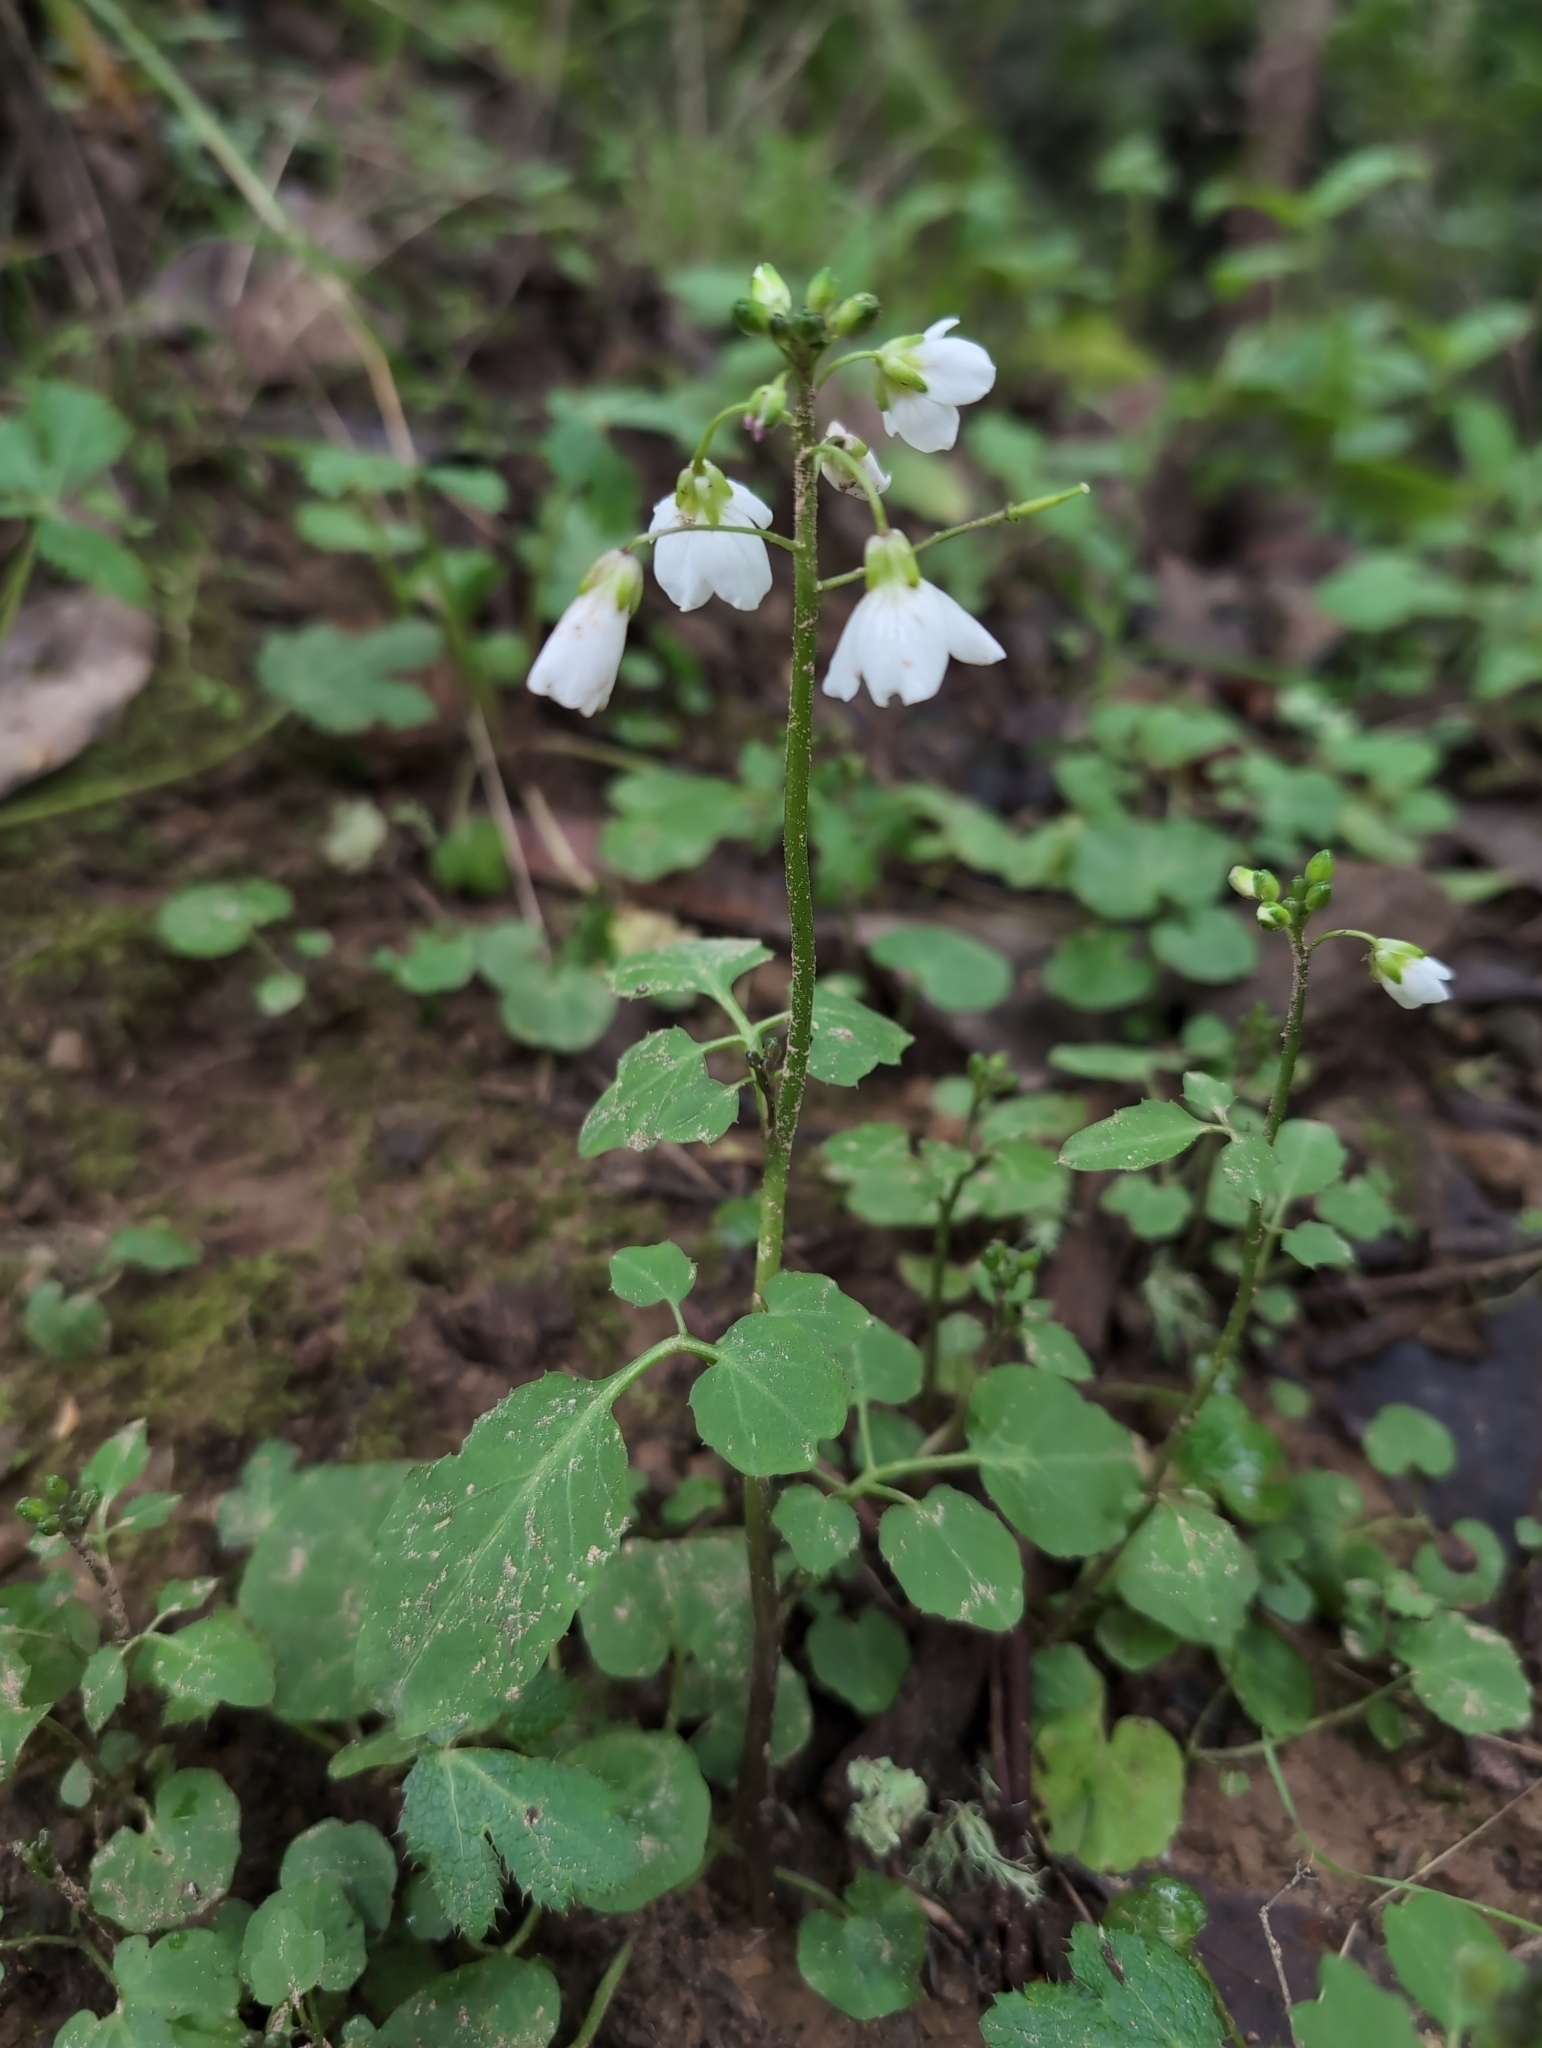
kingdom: Plantae
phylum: Tracheophyta
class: Magnoliopsida
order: Brassicales
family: Brassicaceae
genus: Cardamine
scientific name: Cardamine californica
